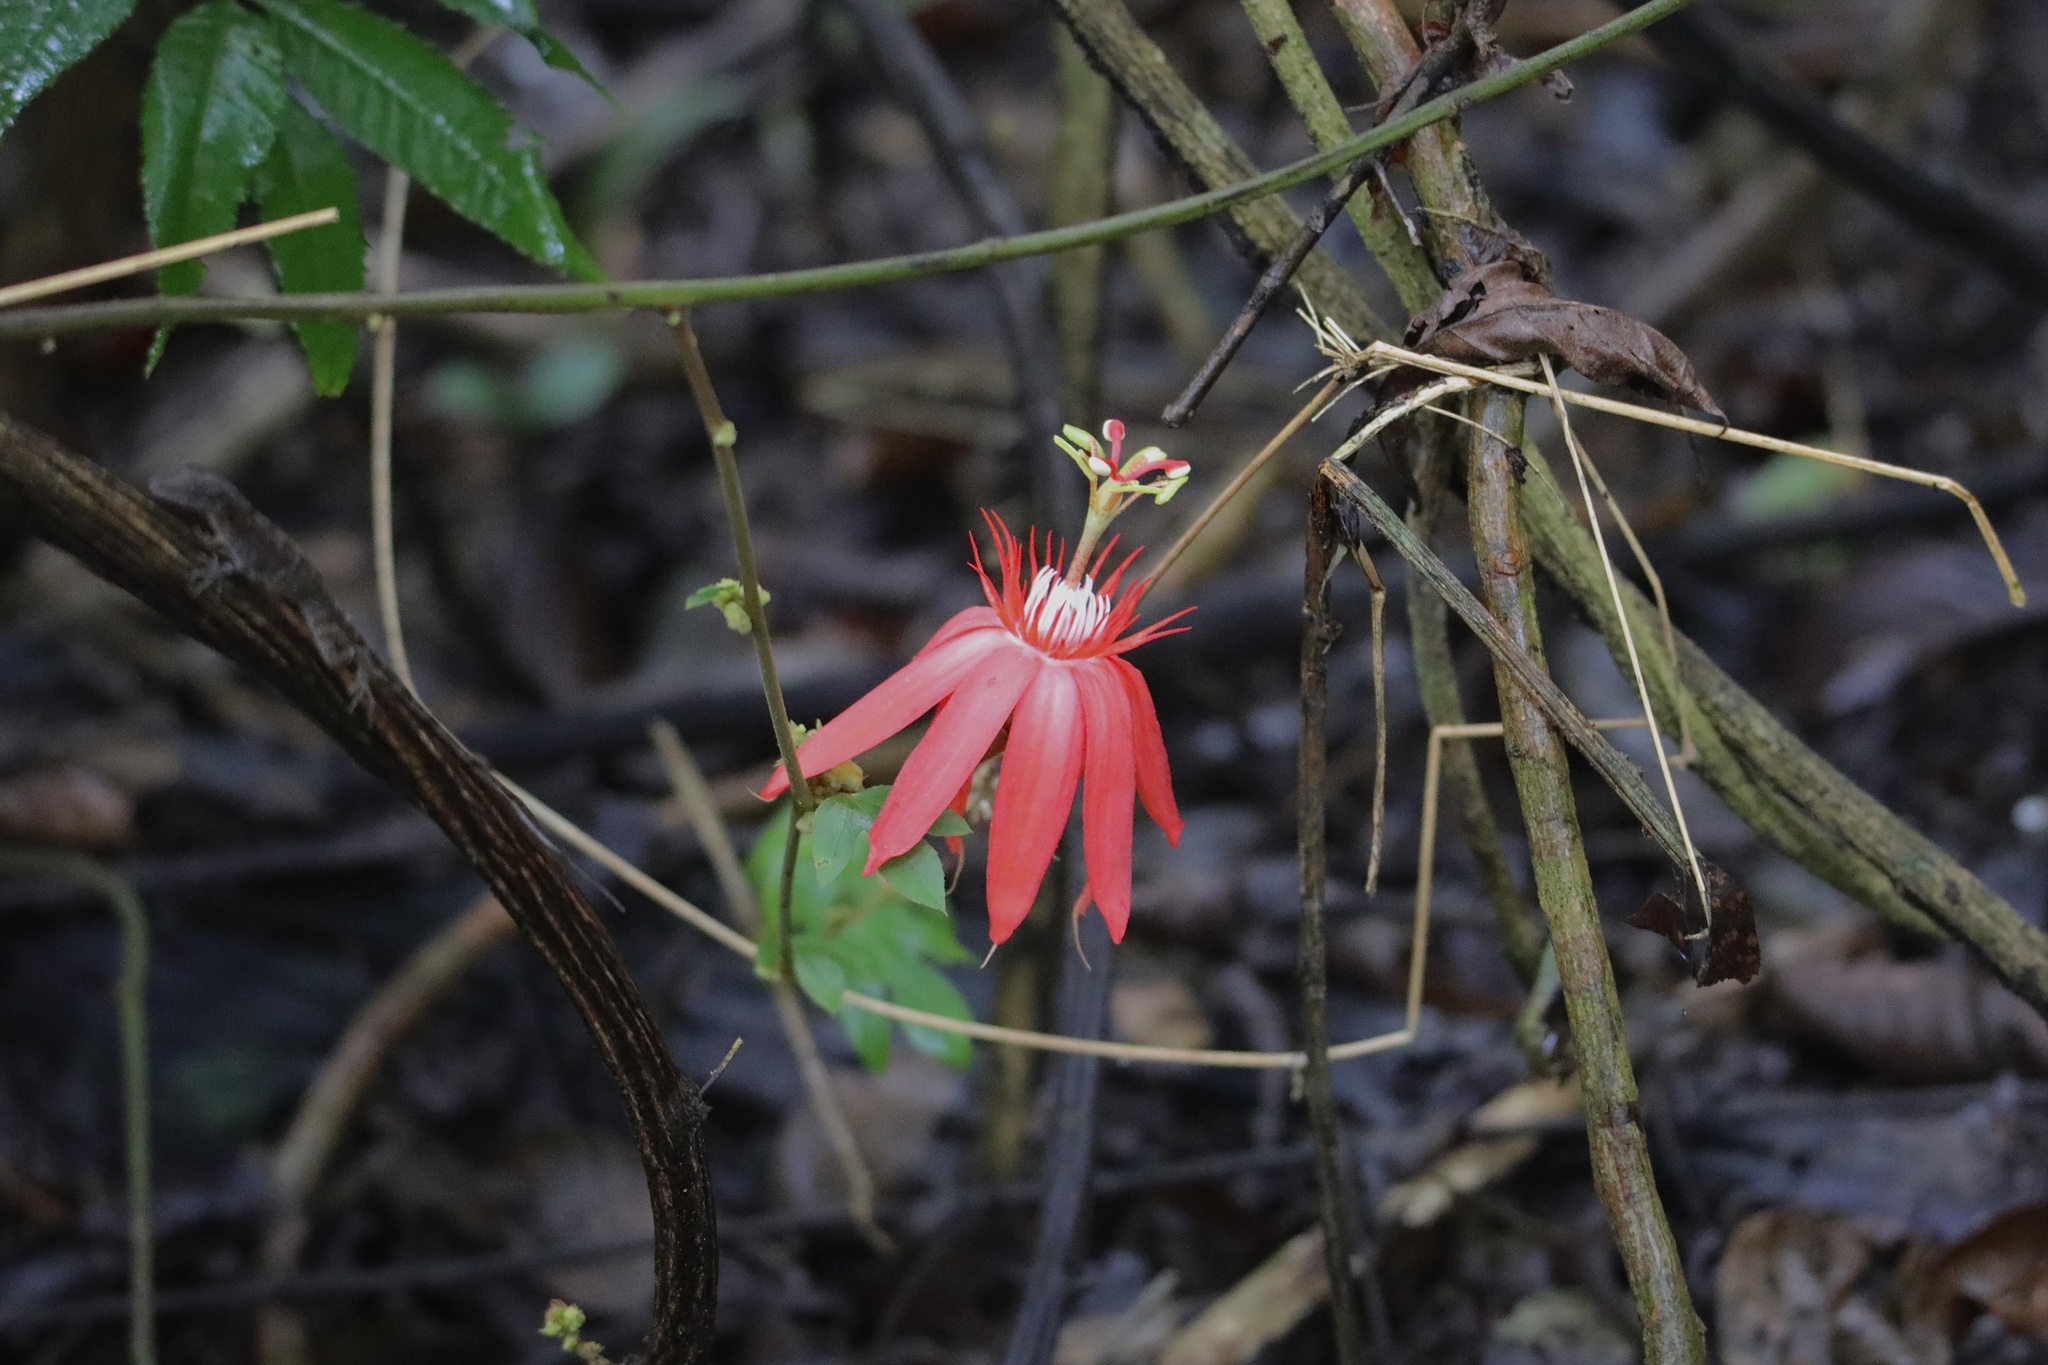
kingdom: Plantae
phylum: Tracheophyta
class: Magnoliopsida
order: Malpighiales
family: Passifloraceae
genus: Passiflora
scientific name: Passiflora vitifolia
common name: Perfumed passionflower
